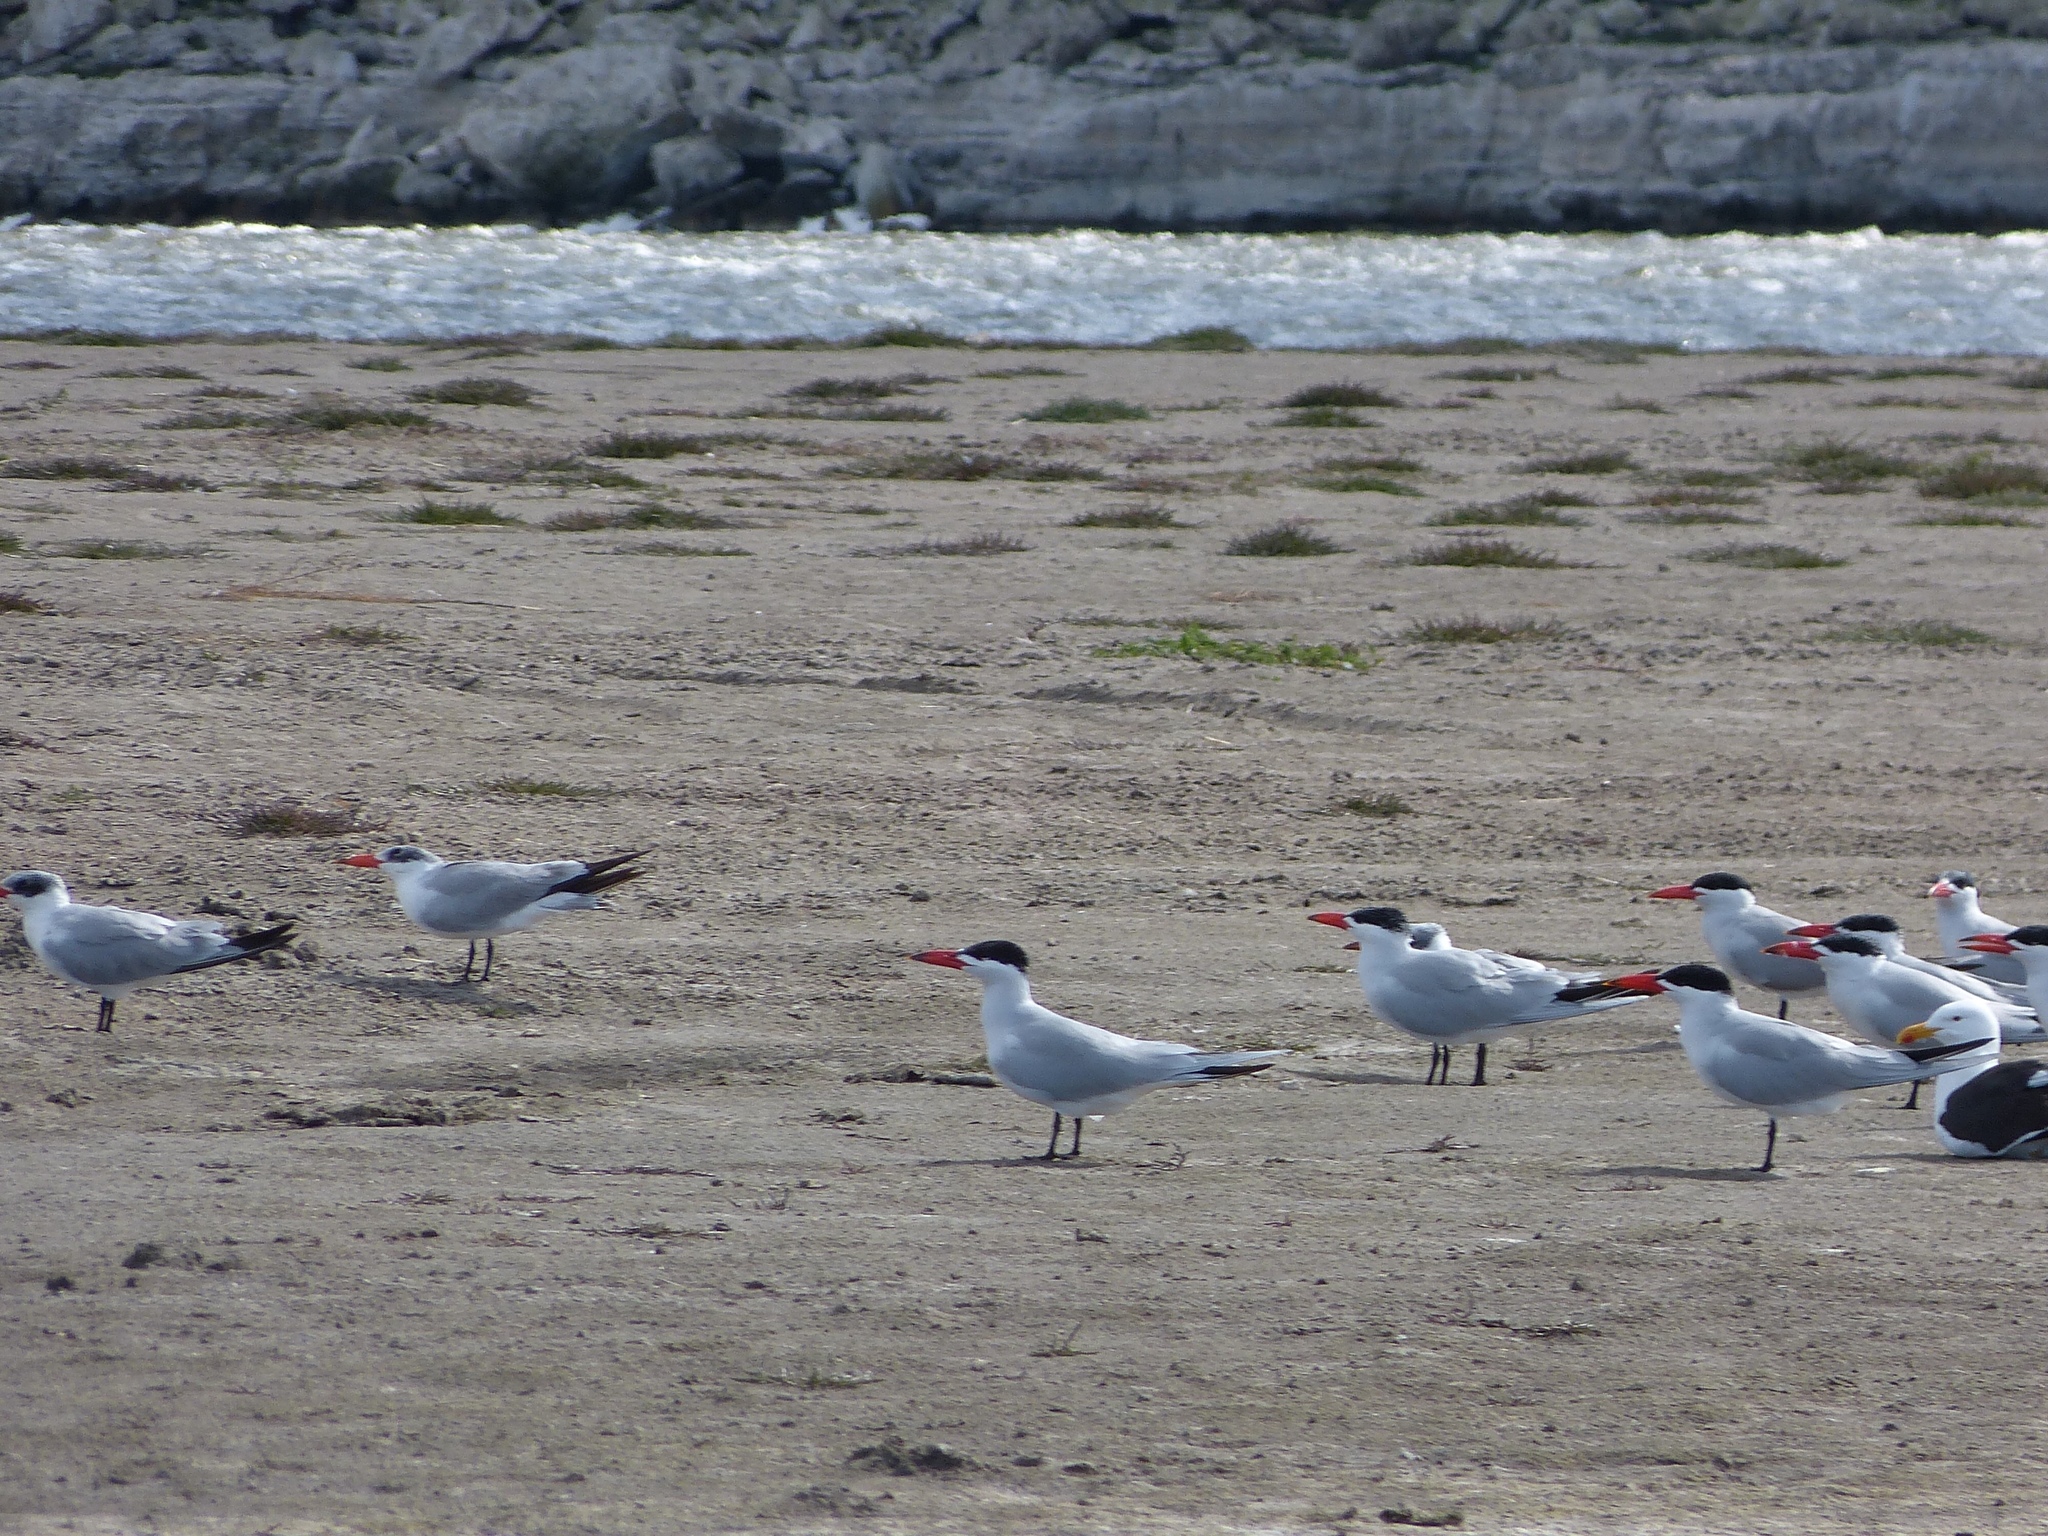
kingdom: Animalia
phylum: Chordata
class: Aves
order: Charadriiformes
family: Laridae
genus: Hydroprogne
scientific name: Hydroprogne caspia
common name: Caspian tern
